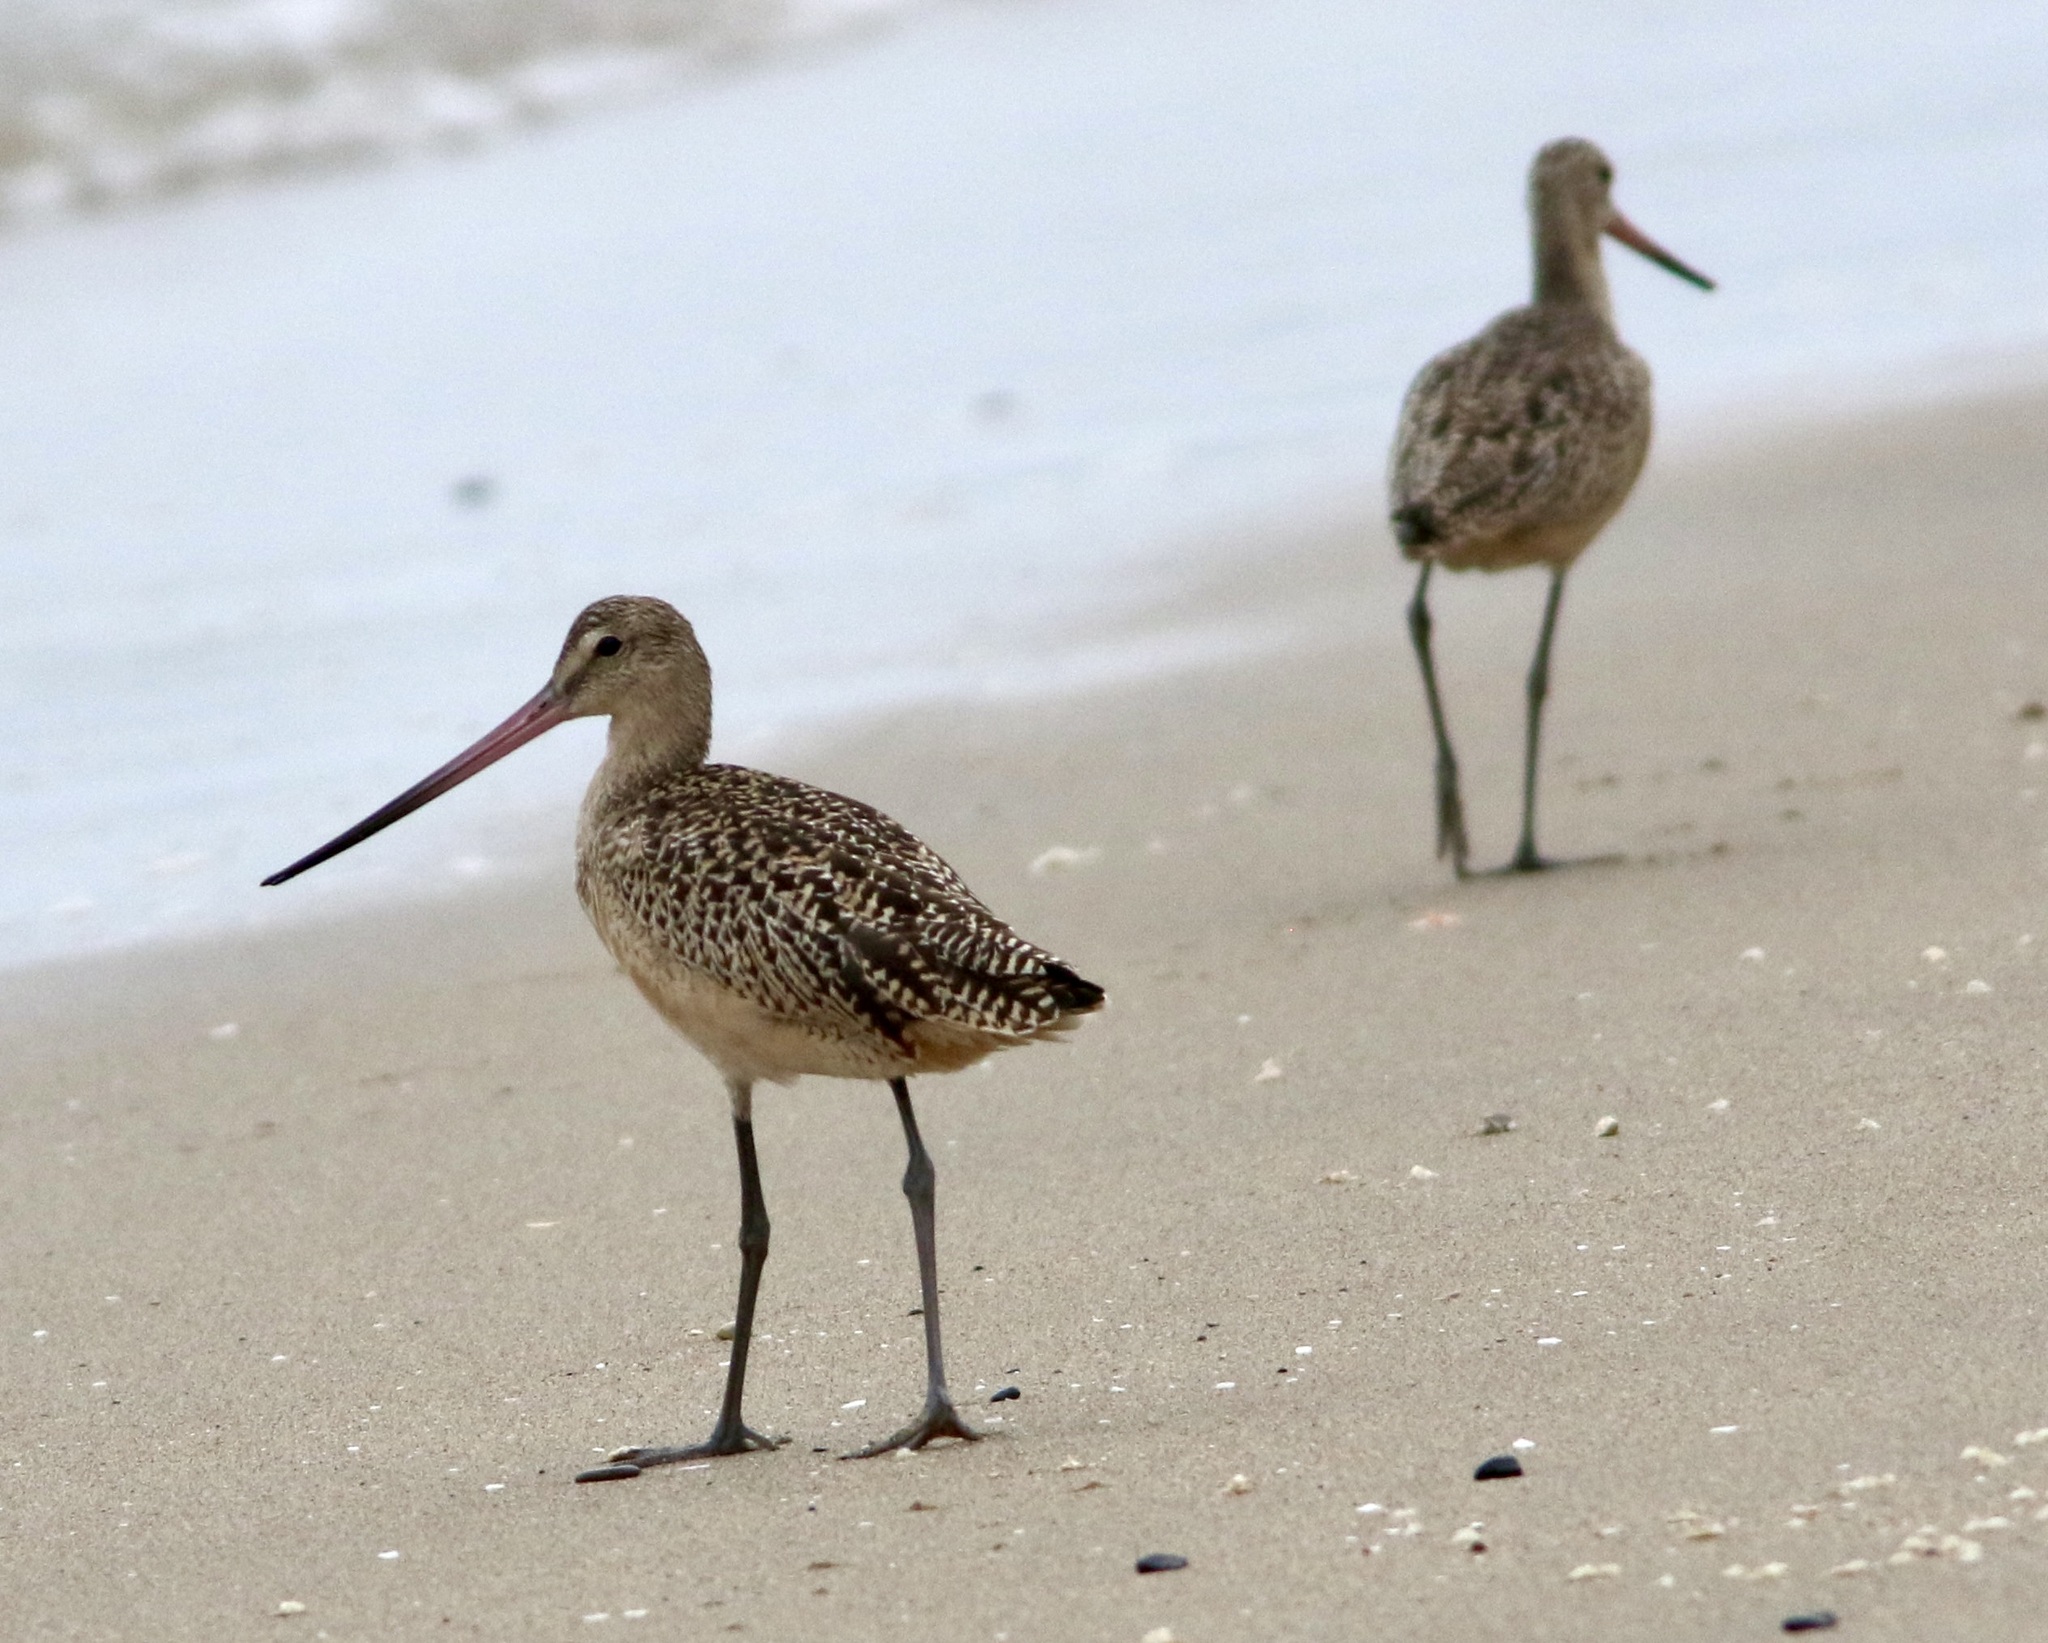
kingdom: Animalia
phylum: Chordata
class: Aves
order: Charadriiformes
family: Scolopacidae
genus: Limosa
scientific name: Limosa fedoa
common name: Marbled godwit
